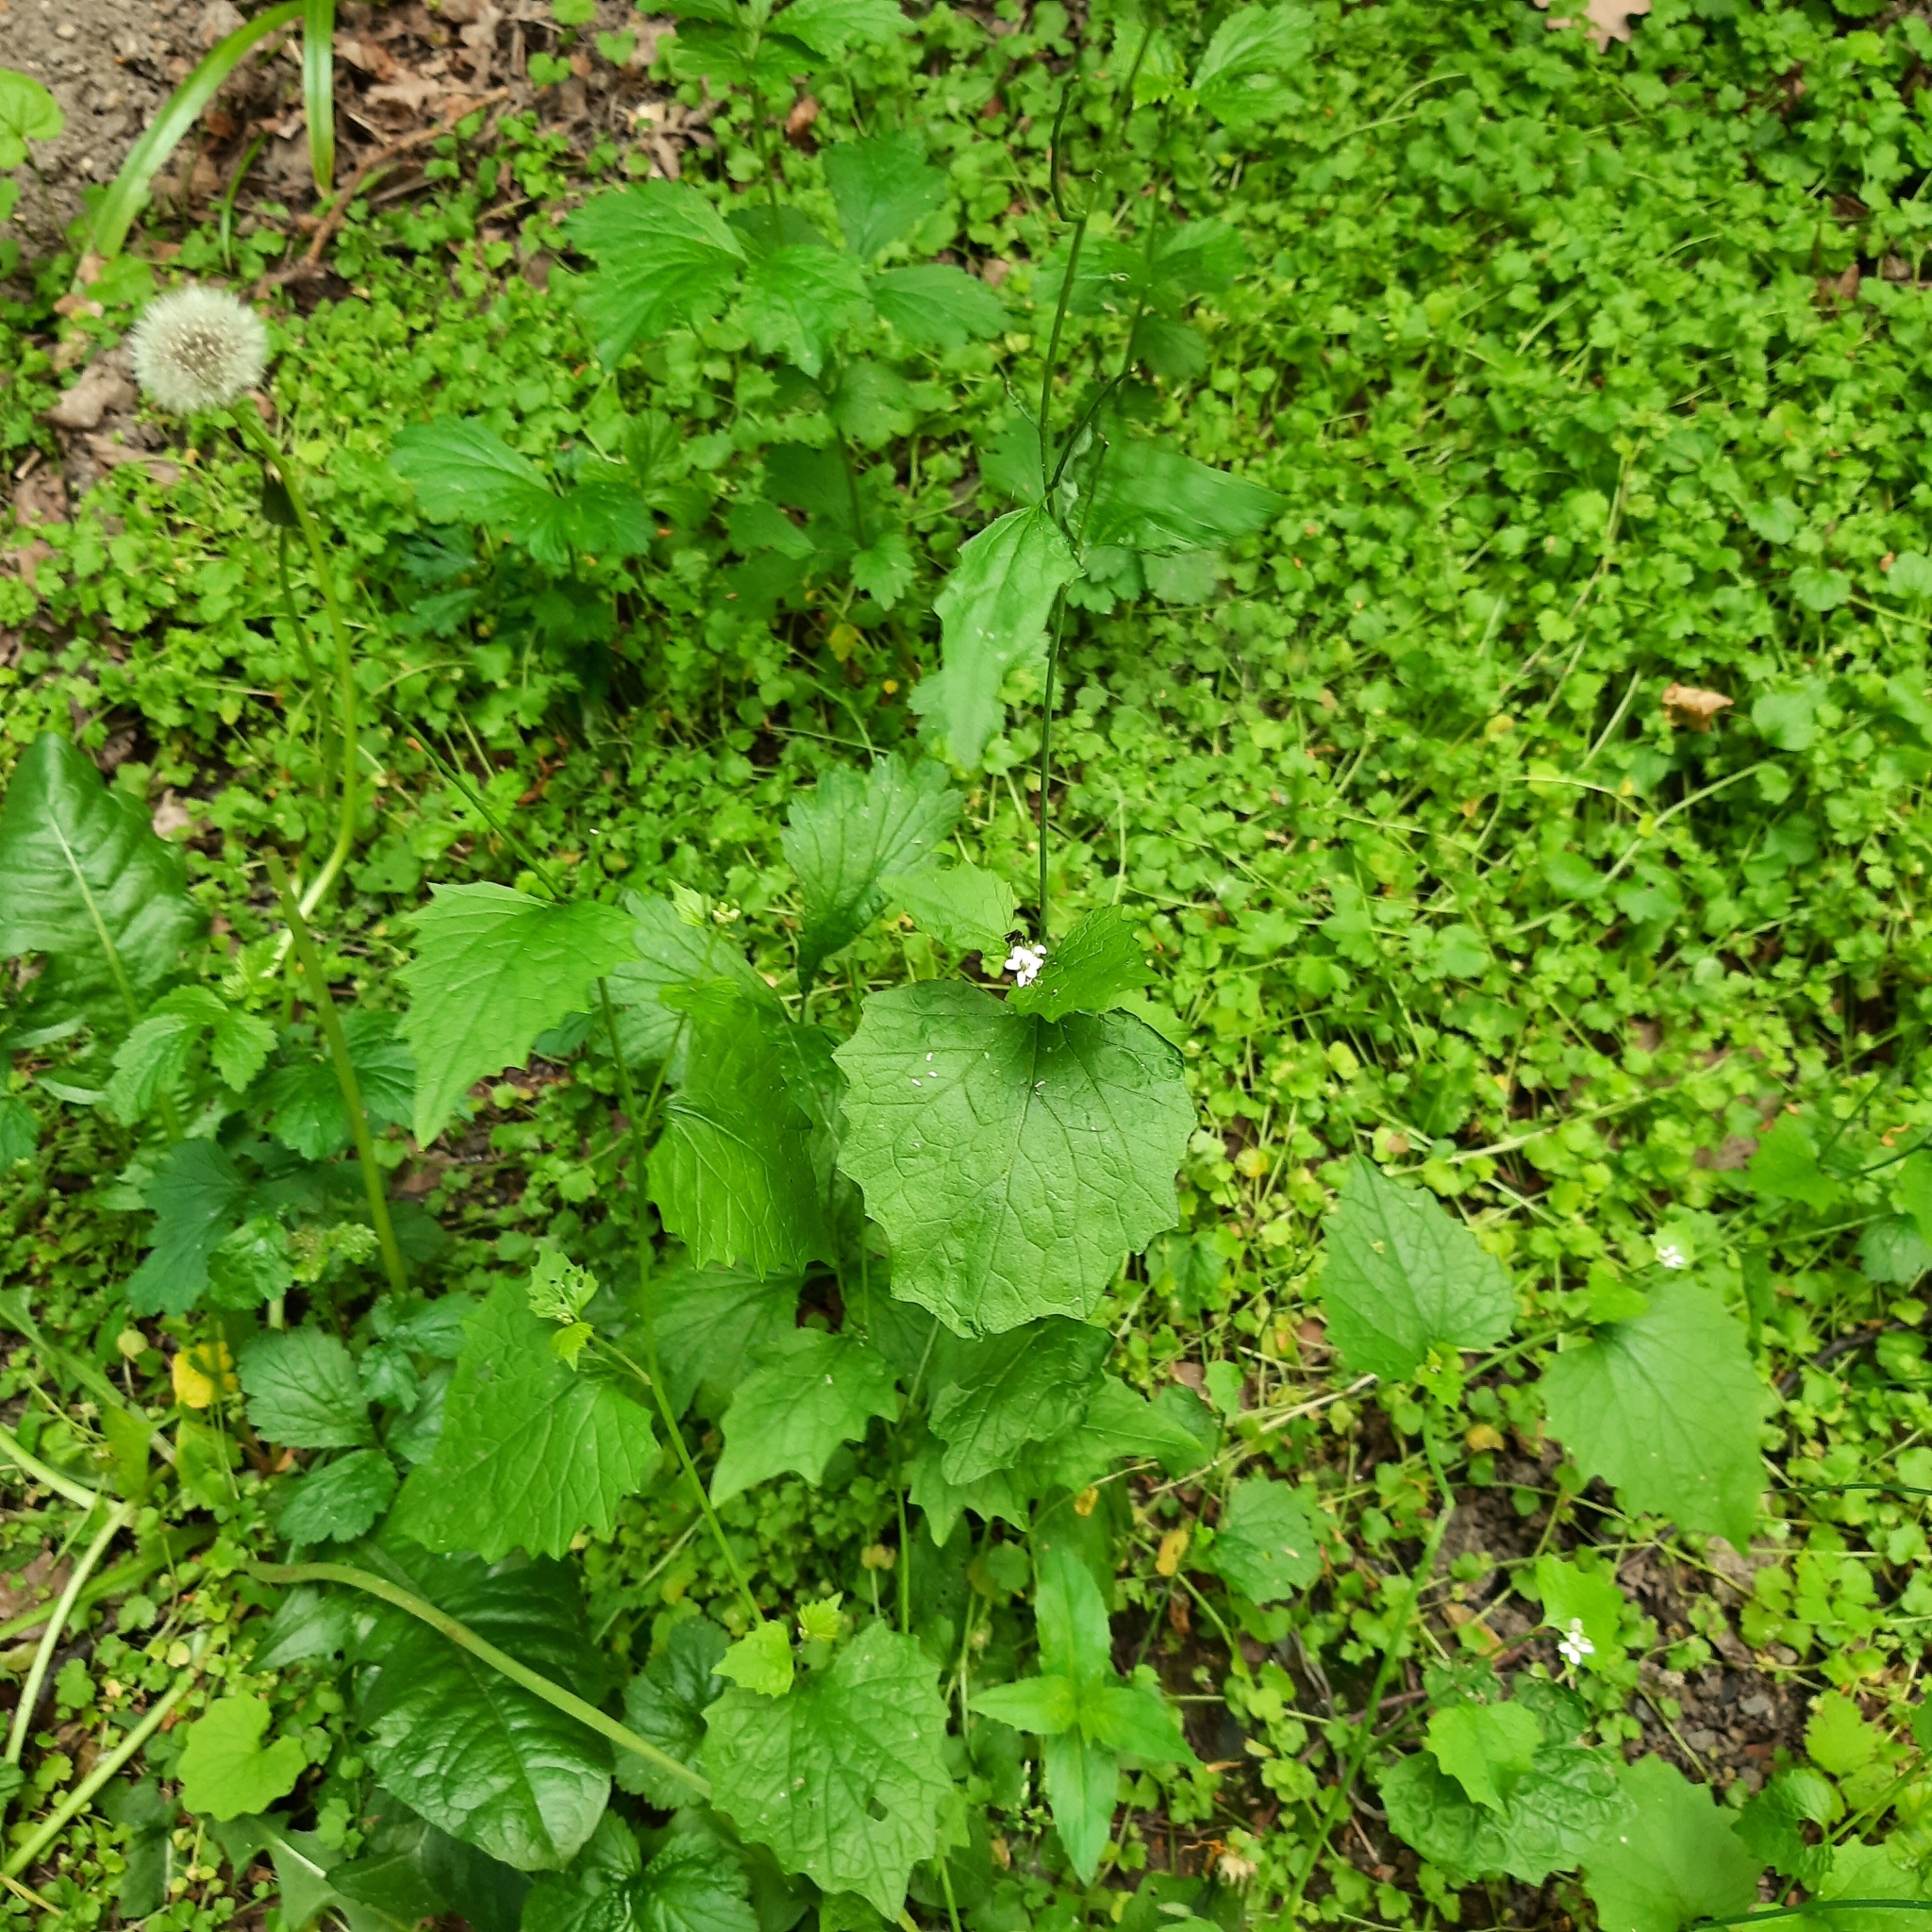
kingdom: Plantae
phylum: Tracheophyta
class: Magnoliopsida
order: Brassicales
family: Brassicaceae
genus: Alliaria
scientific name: Alliaria petiolata
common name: Garlic mustard
